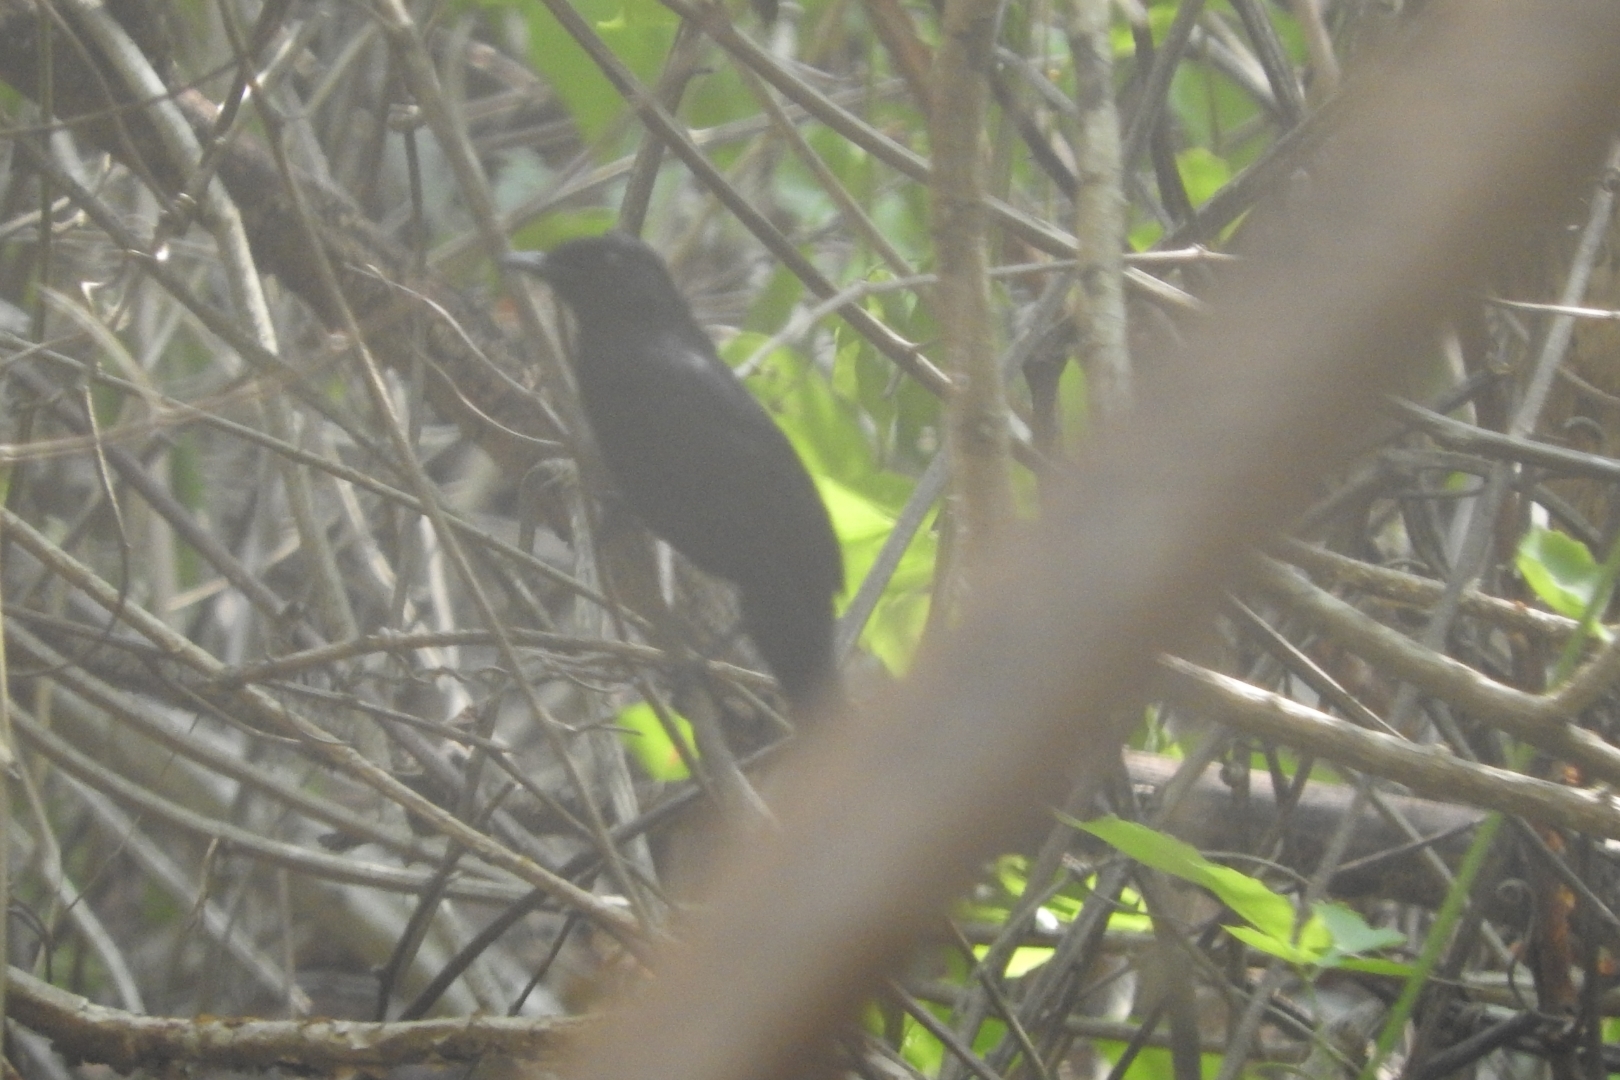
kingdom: Animalia
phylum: Chordata
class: Aves
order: Passeriformes
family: Mimidae
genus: Melanoptila
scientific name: Melanoptila glabrirostris
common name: Black catbird
